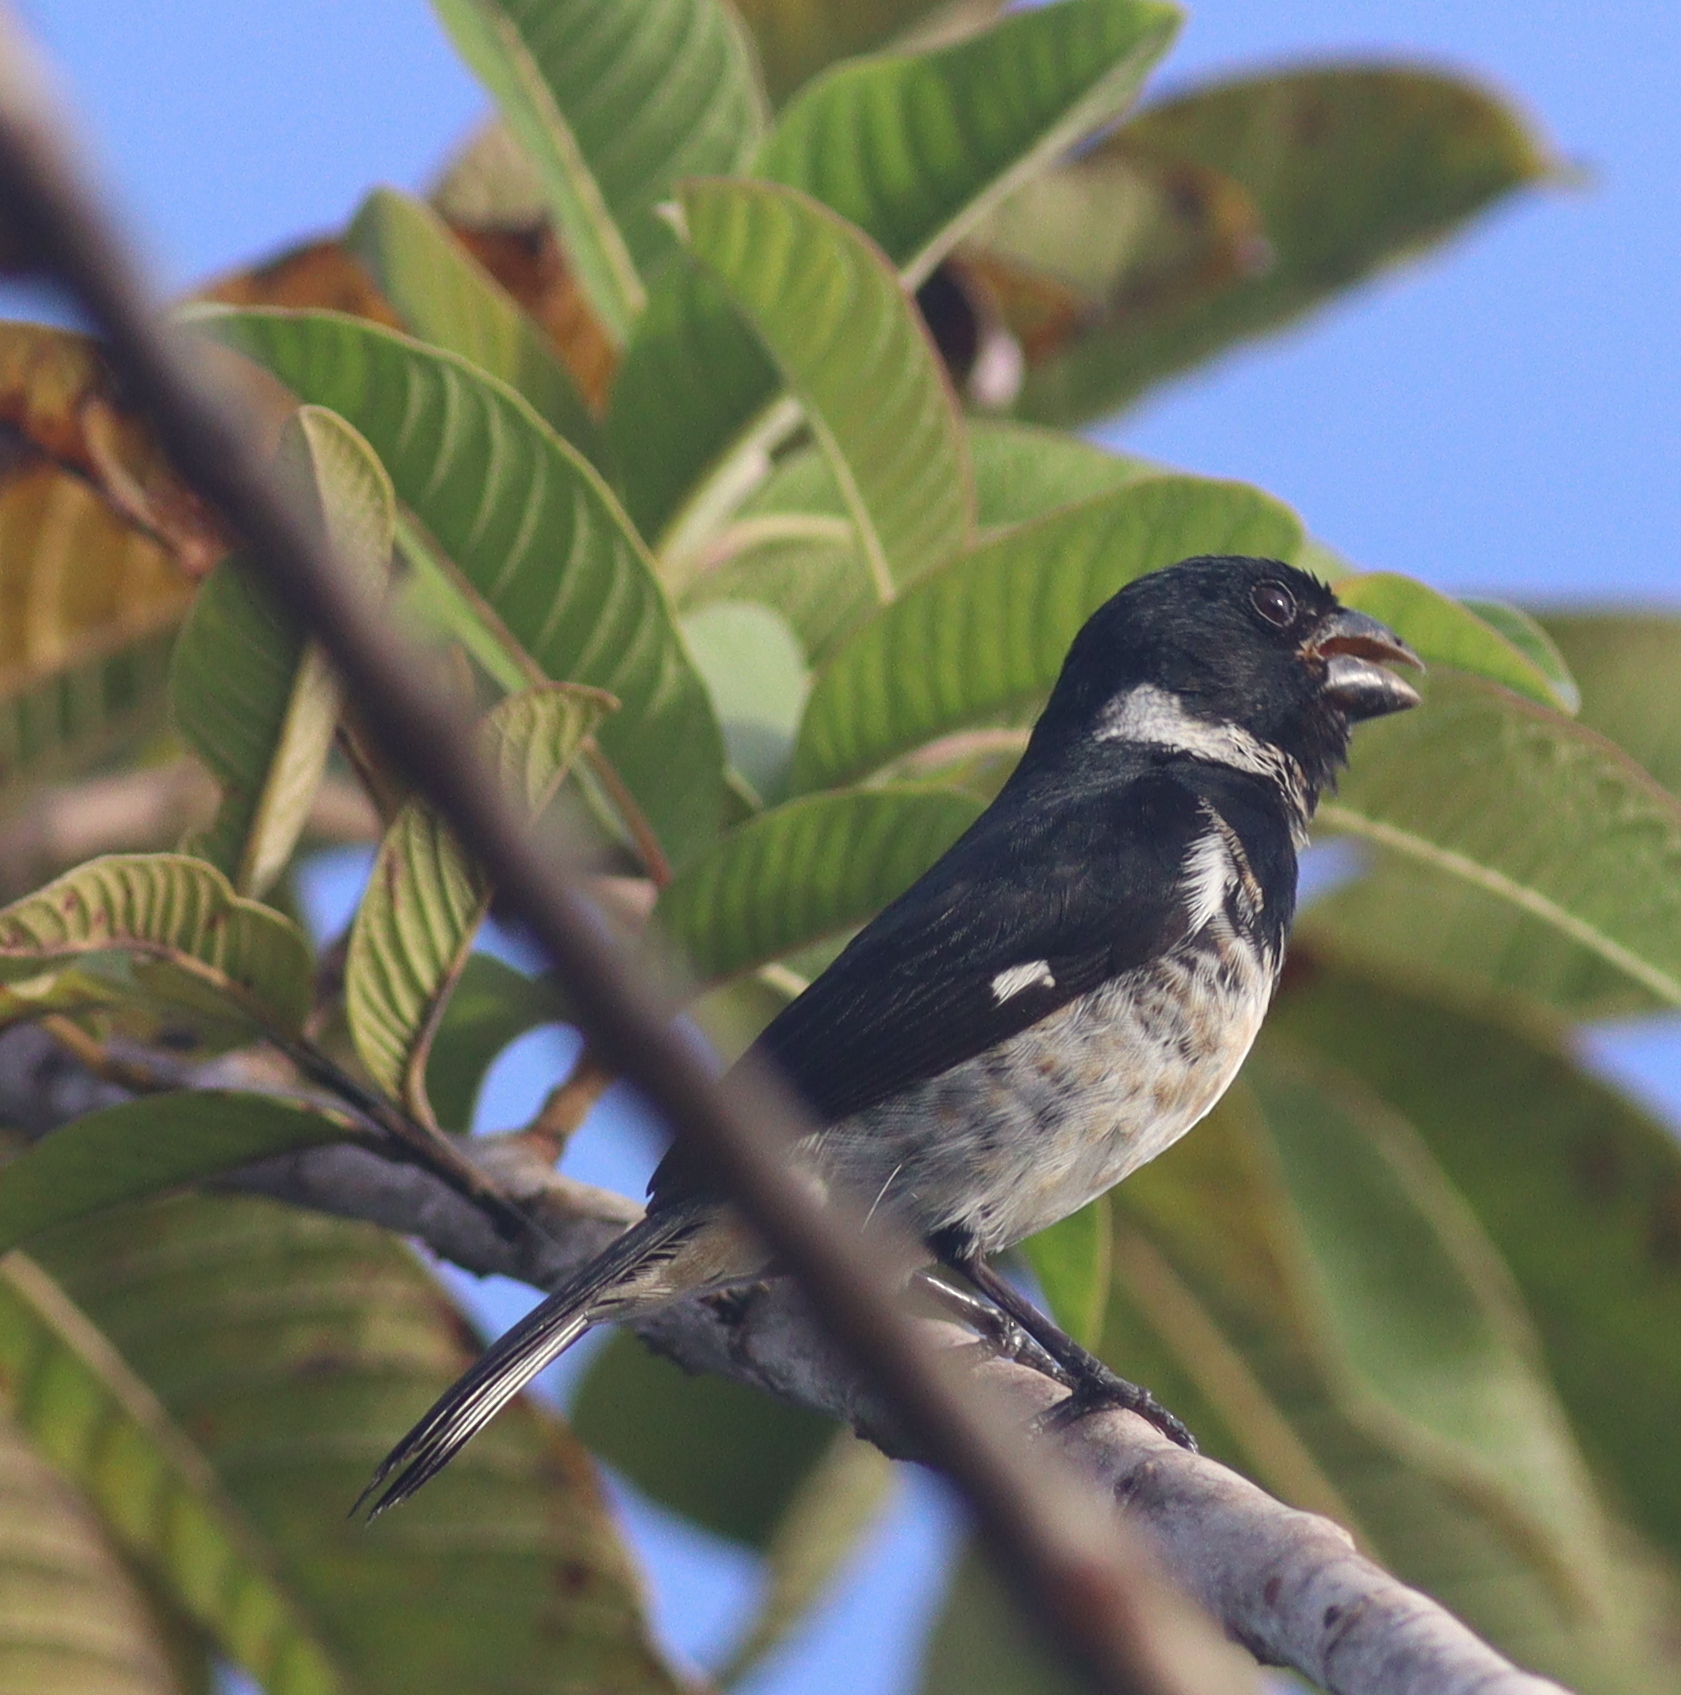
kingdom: Animalia
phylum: Chordata
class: Aves
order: Passeriformes
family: Thraupidae
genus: Sporophila
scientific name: Sporophila corvina
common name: Variable seedeater
